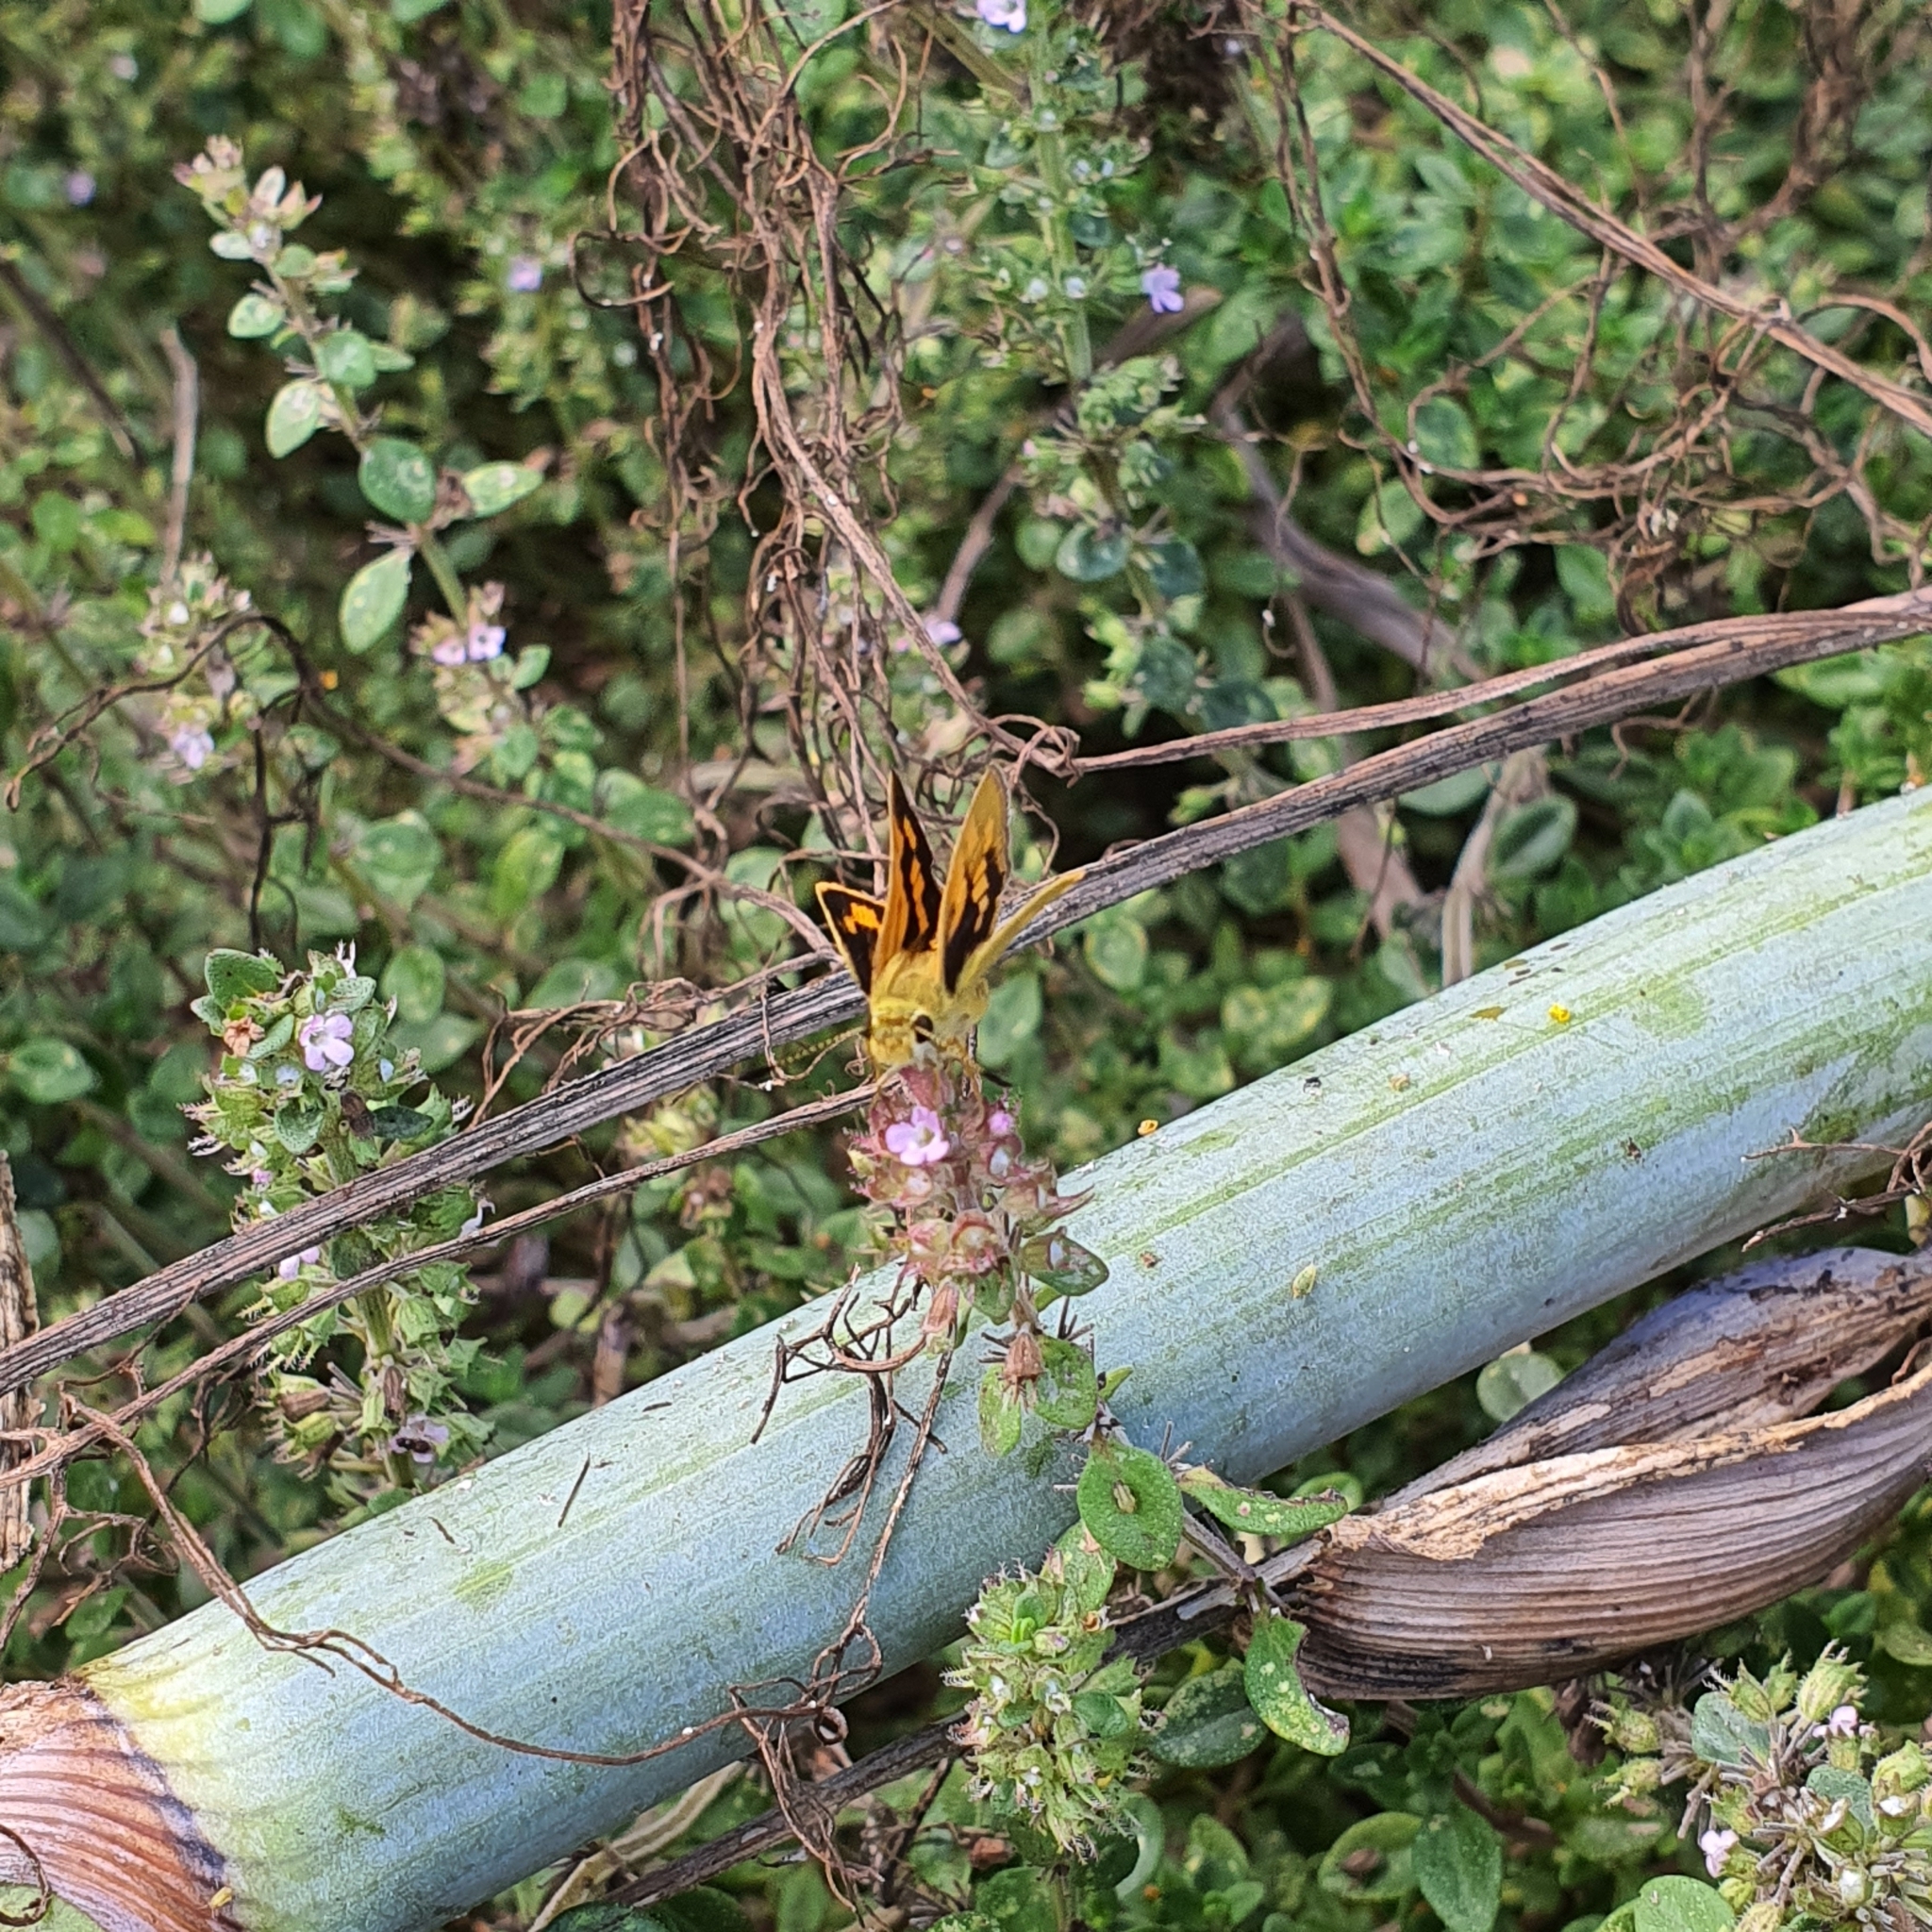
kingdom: Animalia
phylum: Arthropoda
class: Insecta
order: Lepidoptera
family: Hesperiidae
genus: Ocybadistes
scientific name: Ocybadistes walkeri
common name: Yellow-banded dart
